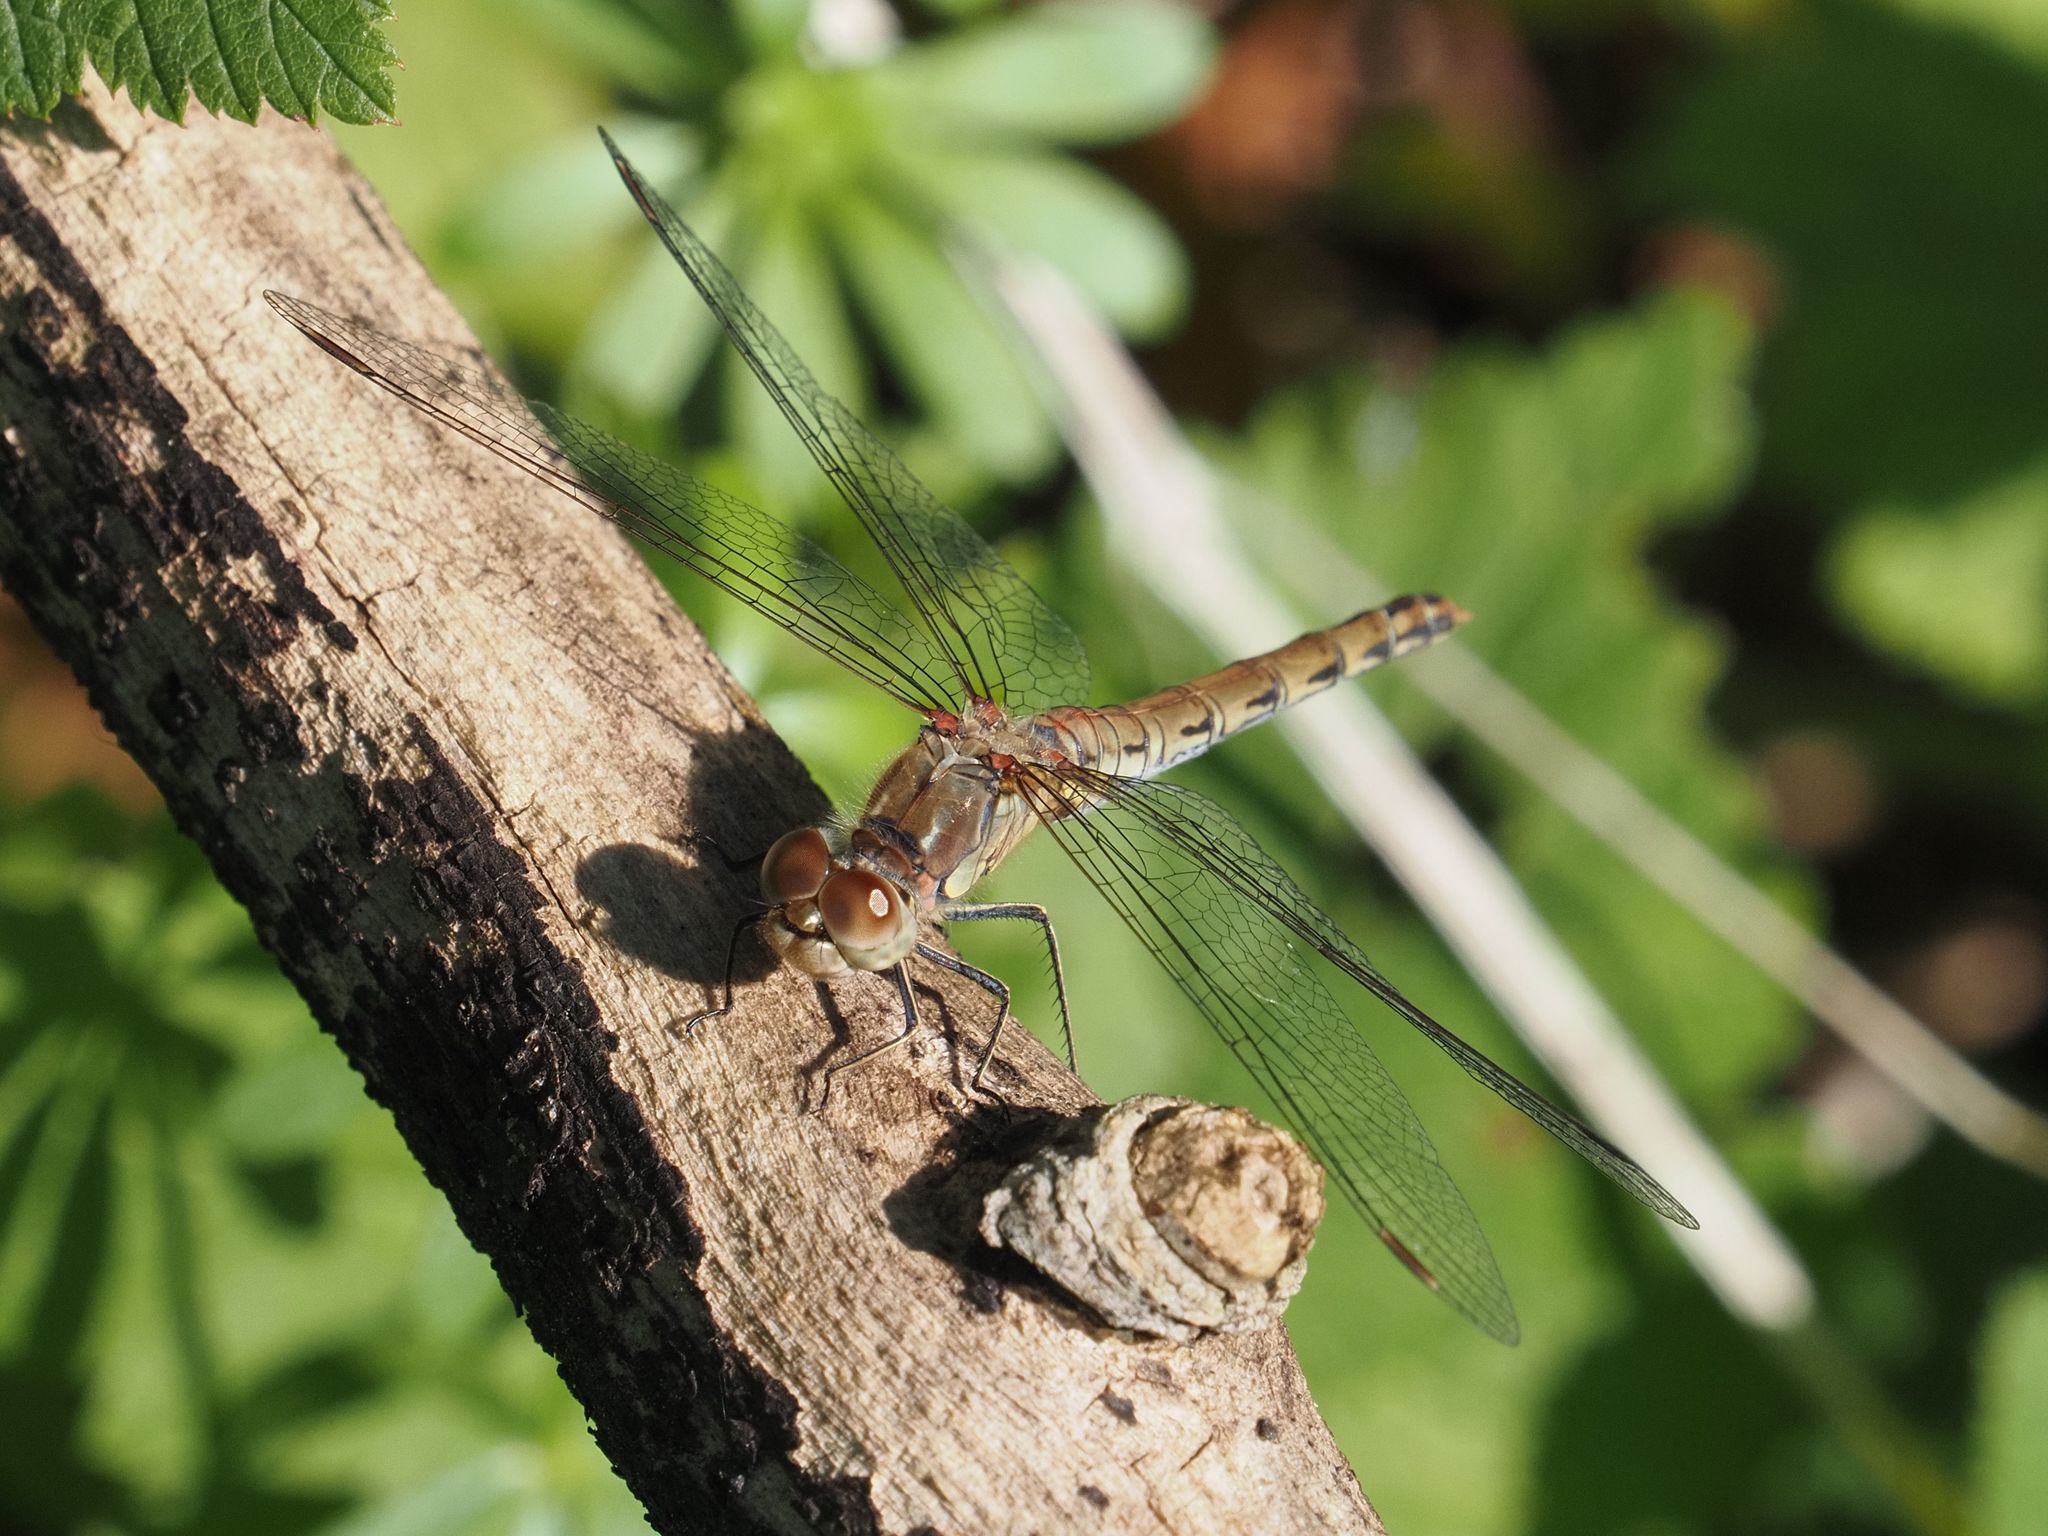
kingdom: Animalia
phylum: Arthropoda
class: Insecta
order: Odonata
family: Libellulidae
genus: Sympetrum
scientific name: Sympetrum striolatum
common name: Common darter
